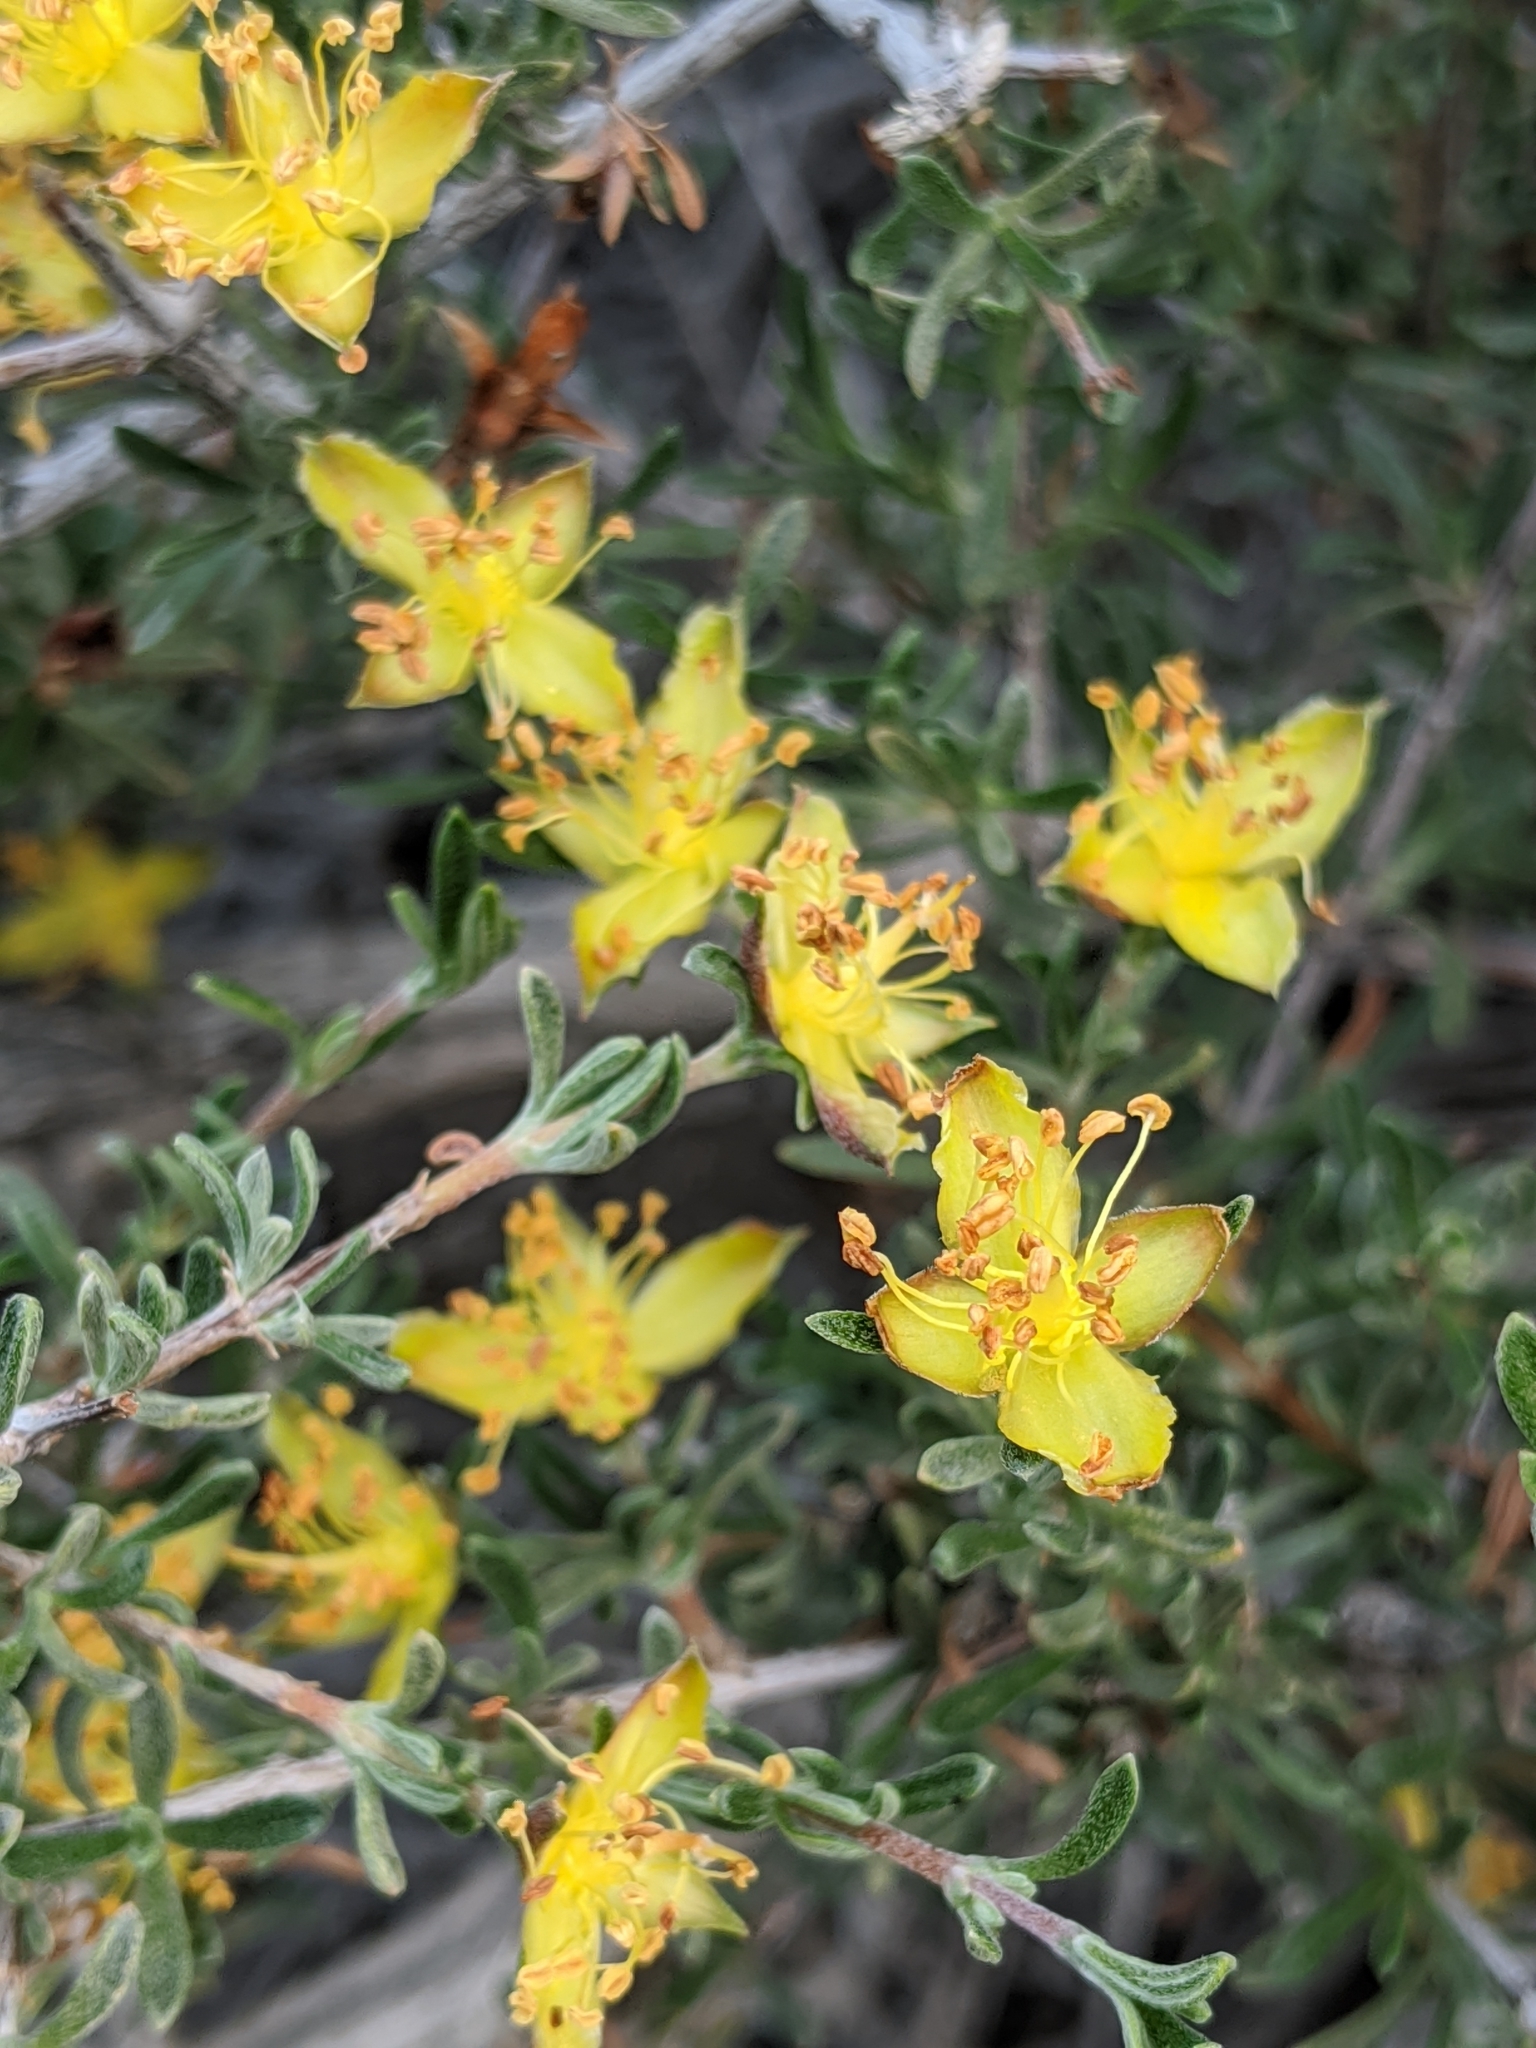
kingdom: Plantae
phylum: Tracheophyta
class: Magnoliopsida
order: Rosales
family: Rosaceae
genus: Coleogyne
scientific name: Coleogyne ramosissima
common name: Blackbrush
